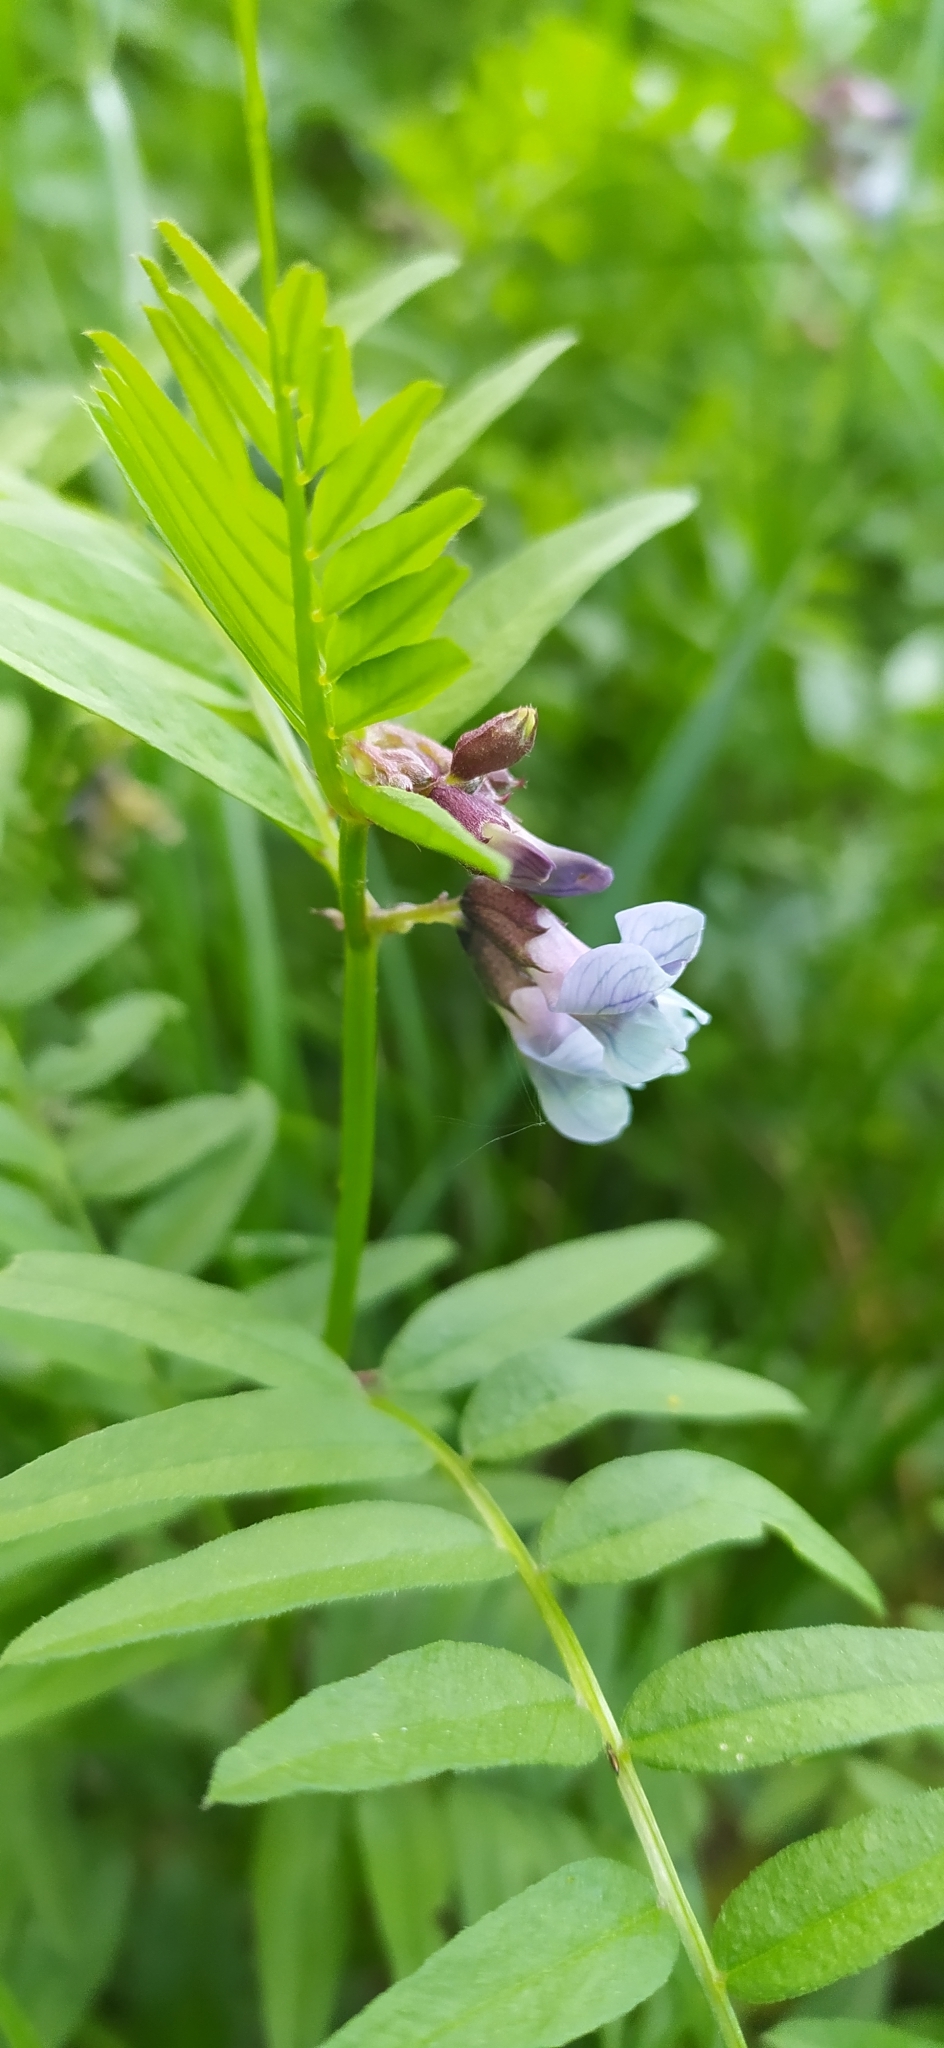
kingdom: Plantae
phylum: Tracheophyta
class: Magnoliopsida
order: Fabales
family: Fabaceae
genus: Vicia
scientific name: Vicia sepium
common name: Bush vetch
